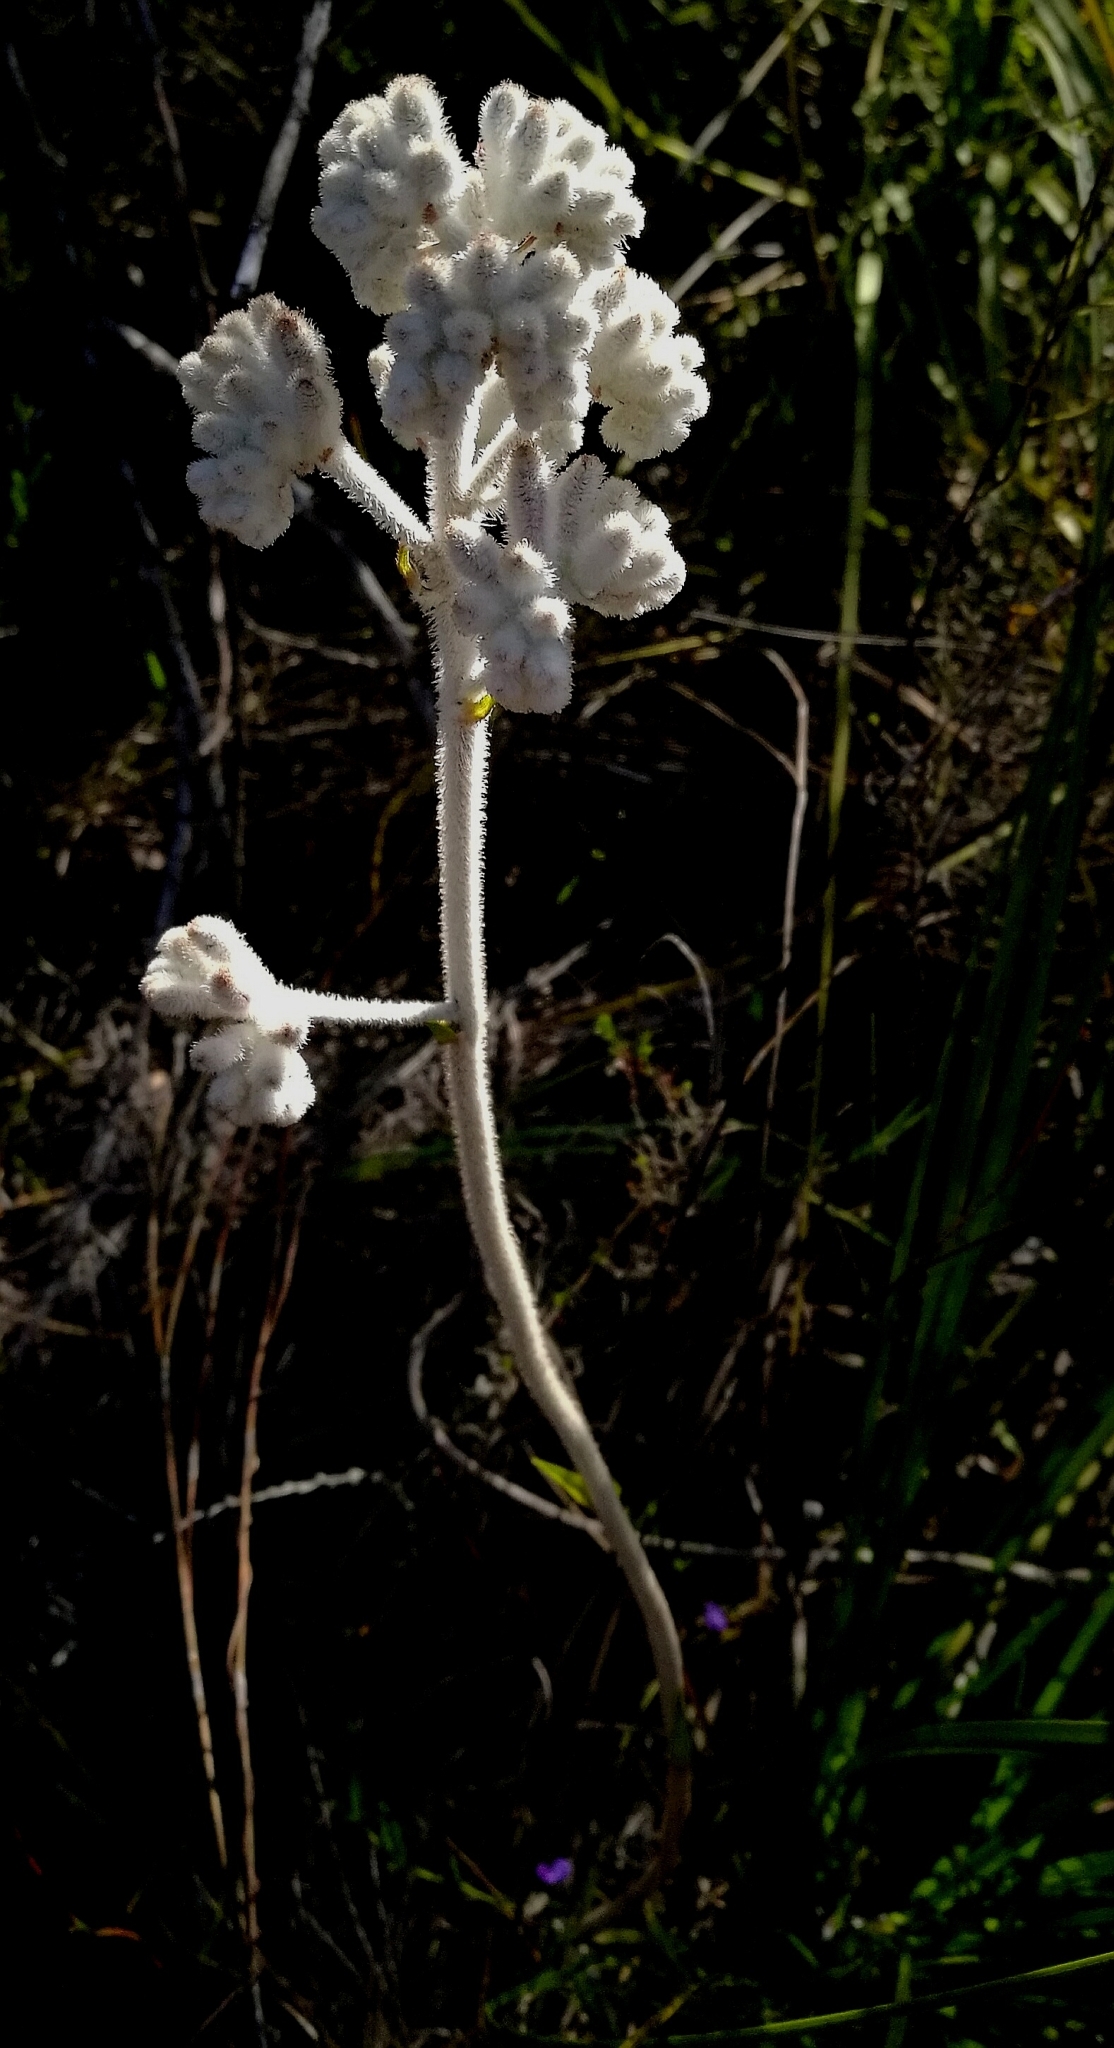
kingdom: Plantae
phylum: Tracheophyta
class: Liliopsida
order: Asparagales
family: Lanariaceae
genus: Lanaria
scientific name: Lanaria lanata
